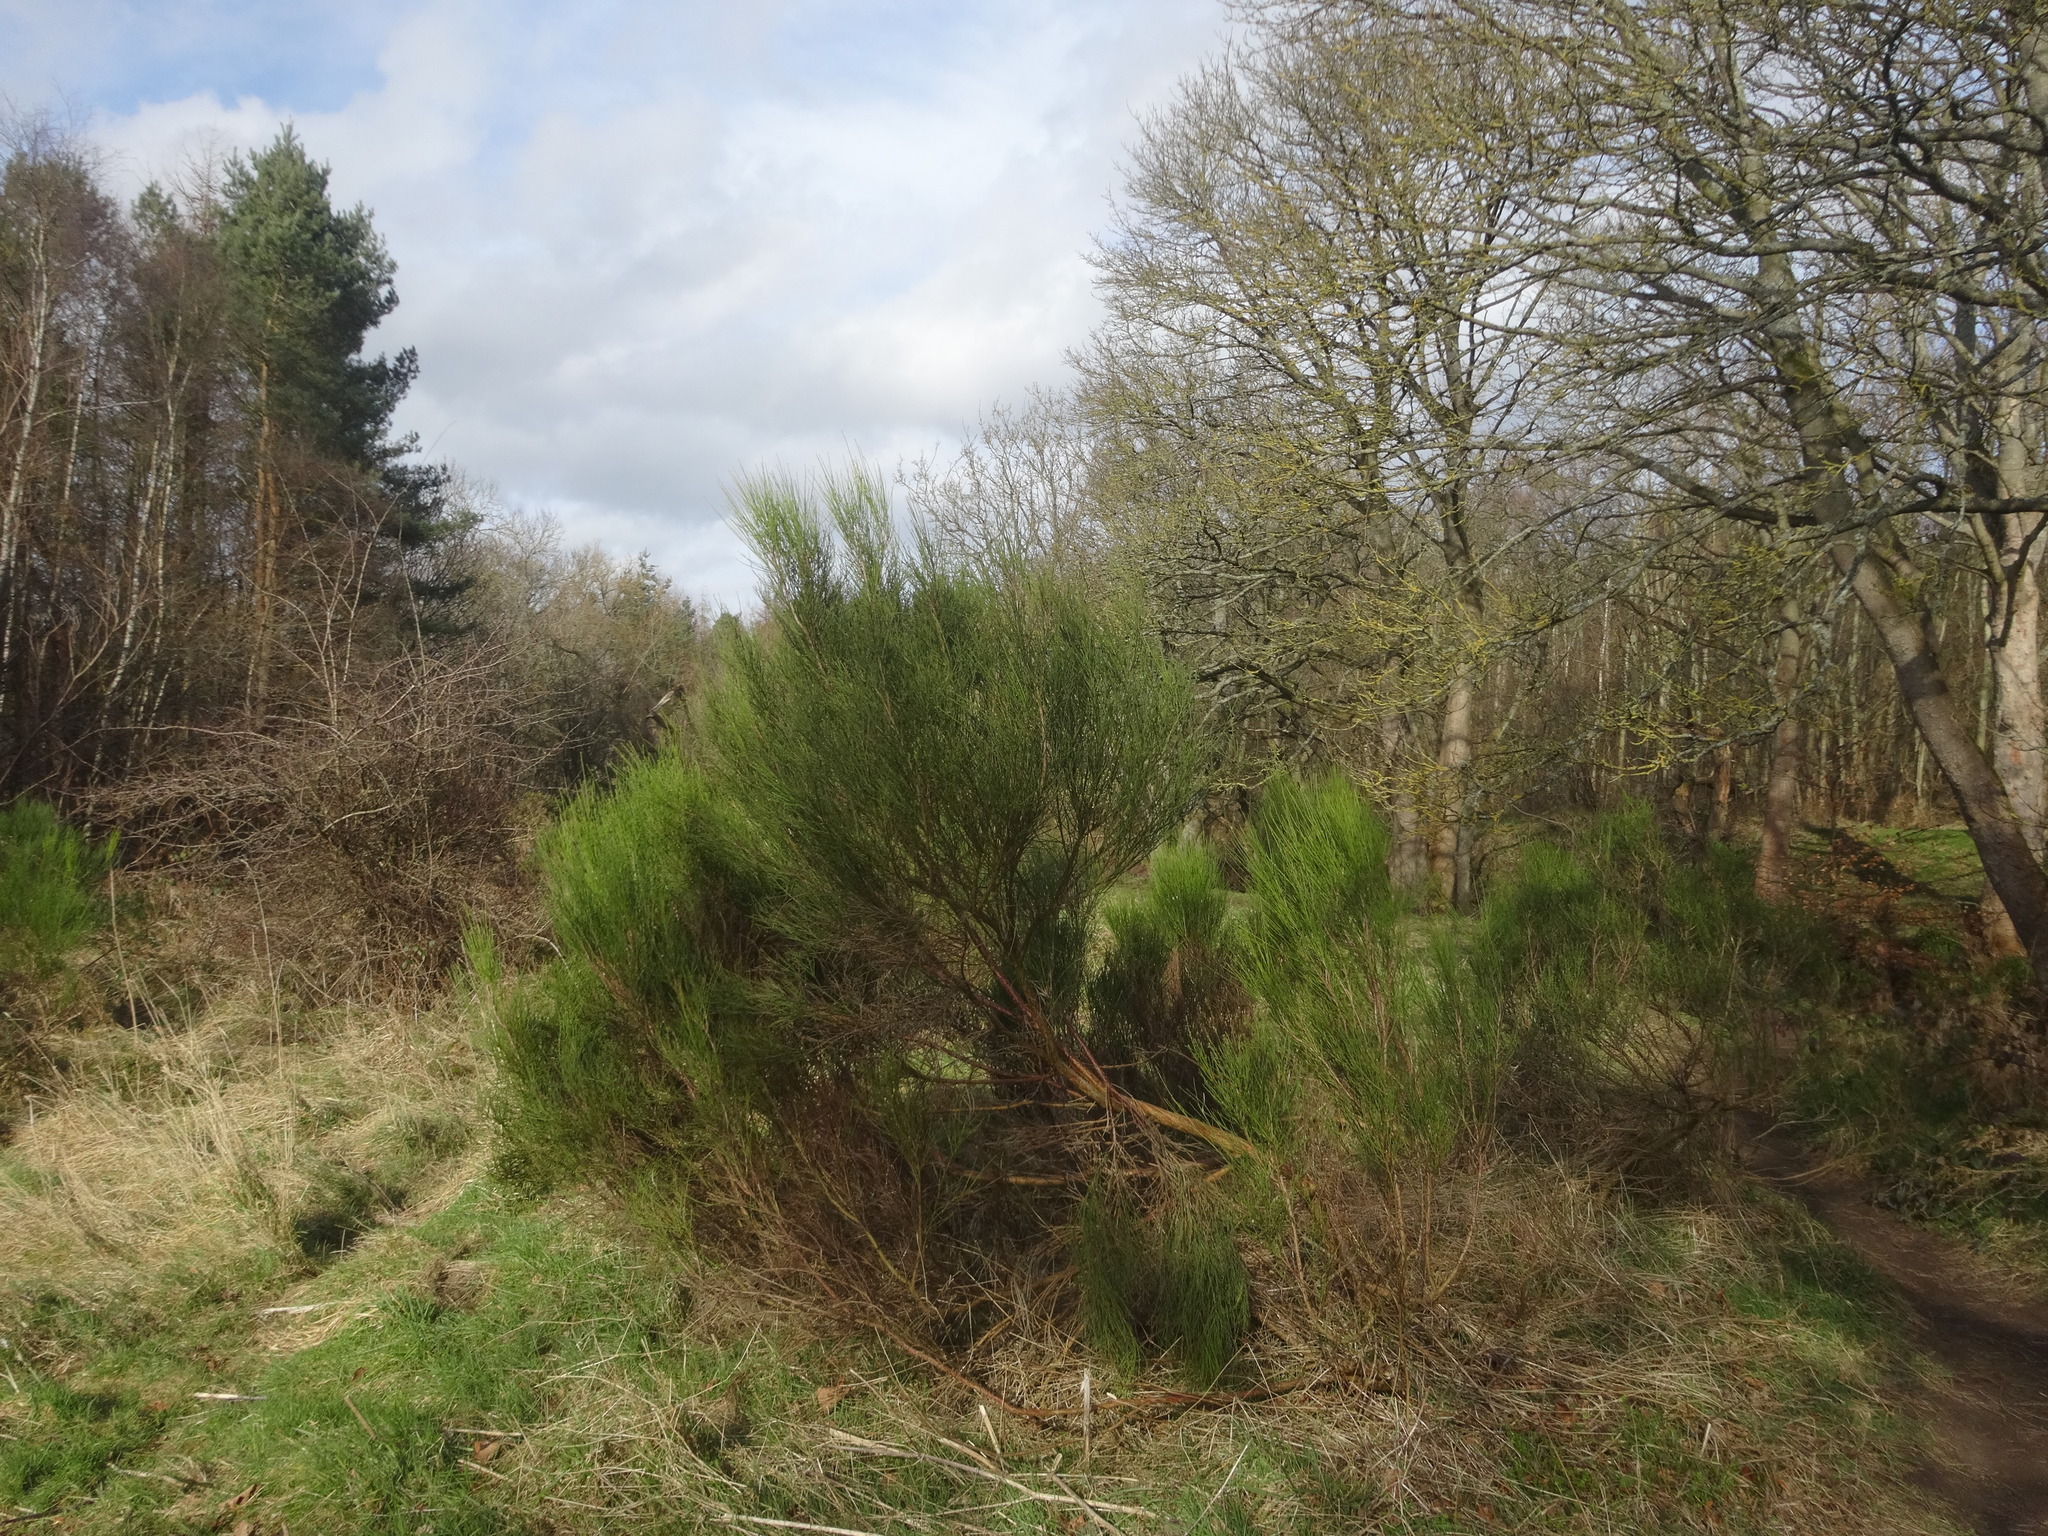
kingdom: Plantae
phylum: Tracheophyta
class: Magnoliopsida
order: Fabales
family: Fabaceae
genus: Cytisus
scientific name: Cytisus scoparius
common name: Scotch broom
